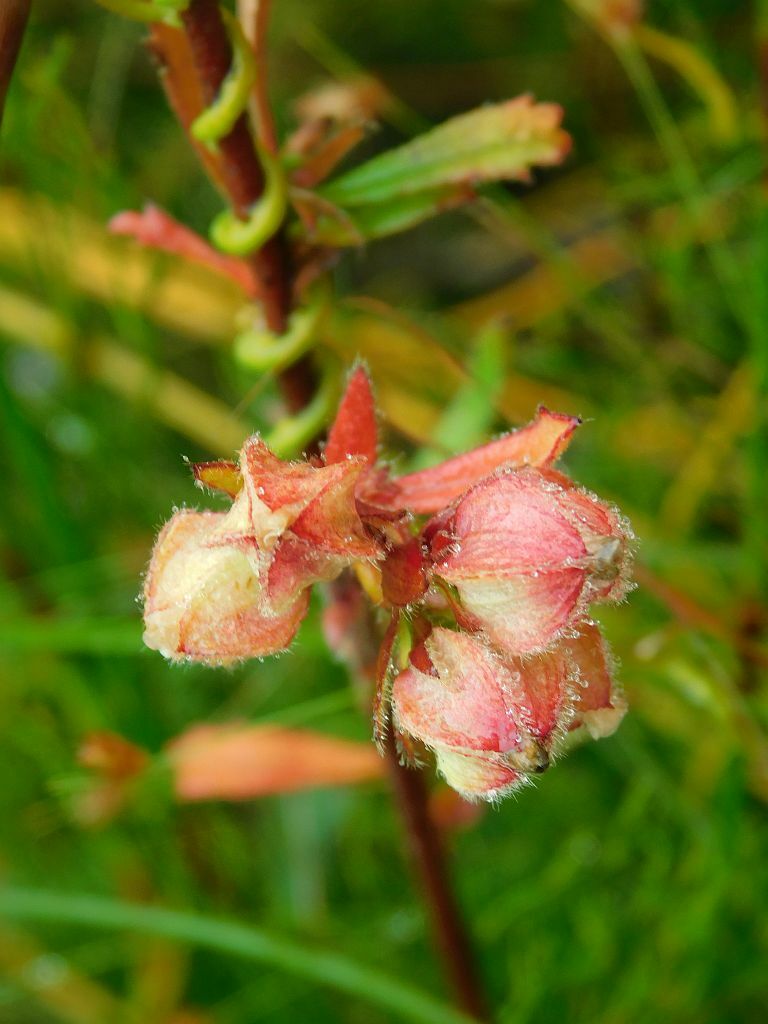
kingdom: Plantae
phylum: Tracheophyta
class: Magnoliopsida
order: Malvales
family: Malvaceae
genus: Hermannia
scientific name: Hermannia hyssopifolia
